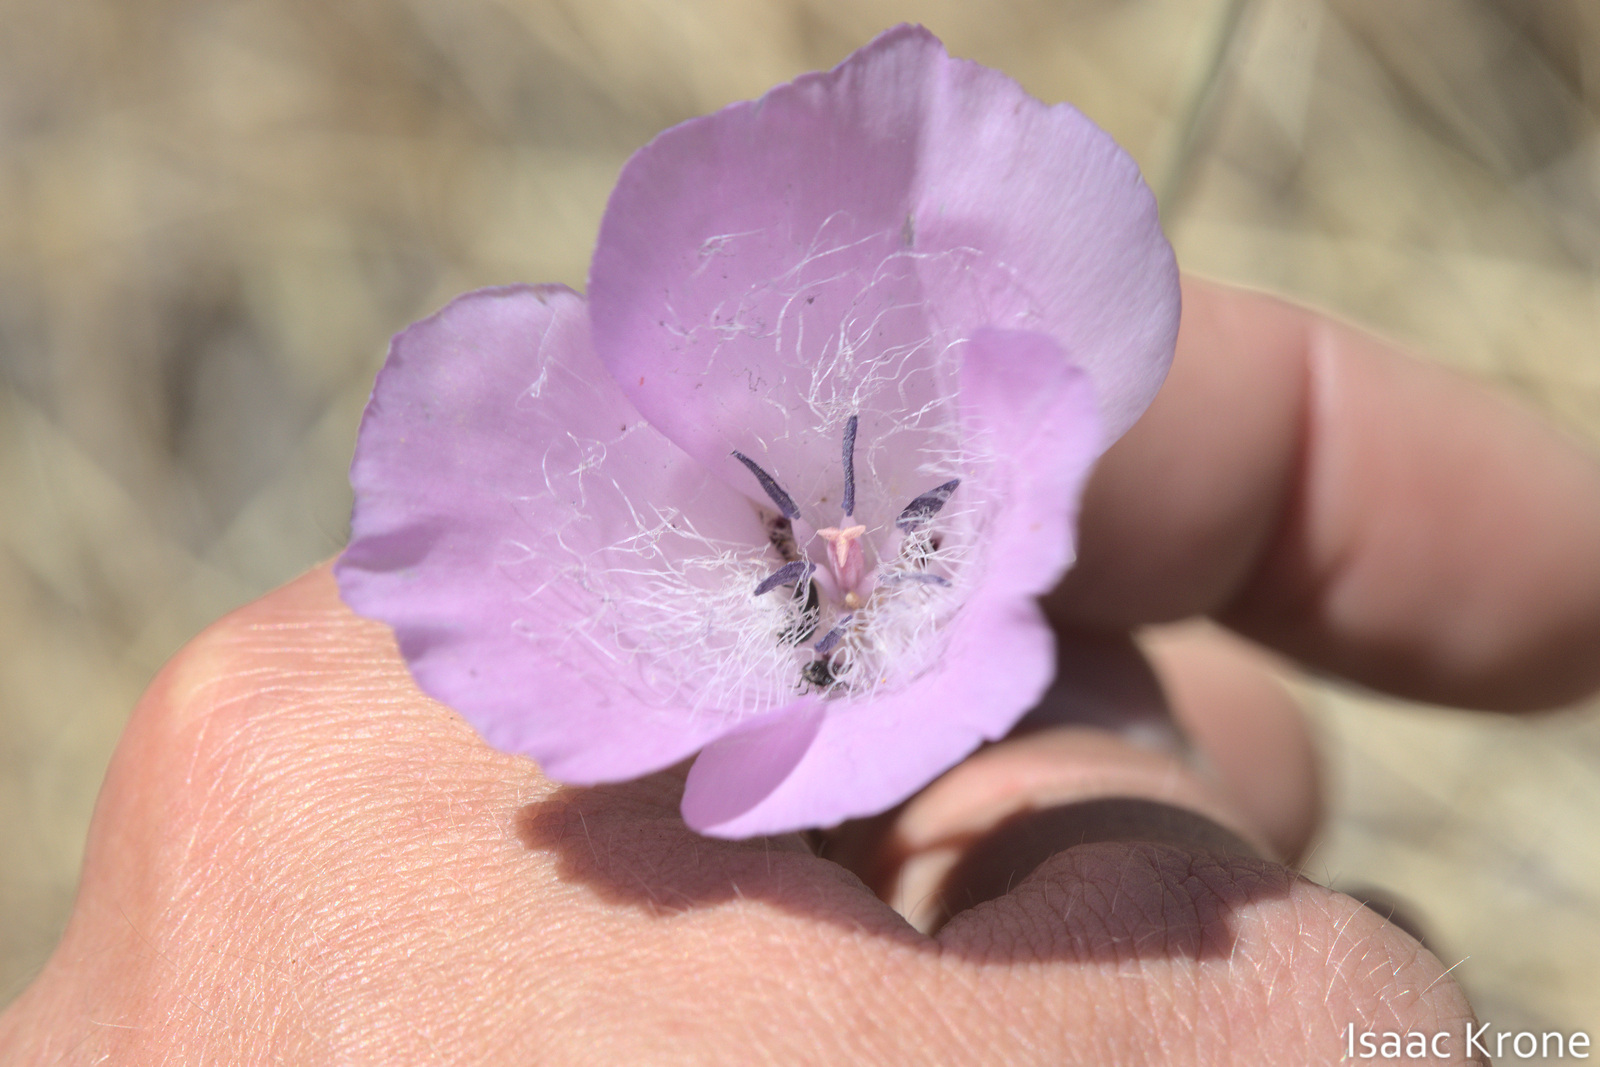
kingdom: Plantae
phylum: Tracheophyta
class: Liliopsida
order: Liliales
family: Liliaceae
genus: Calochortus
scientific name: Calochortus splendens
